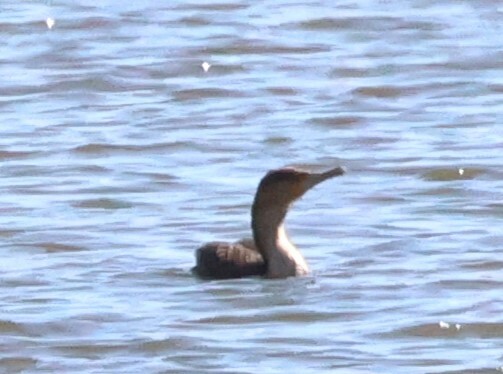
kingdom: Animalia
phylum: Chordata
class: Aves
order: Suliformes
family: Phalacrocoracidae
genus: Phalacrocorax
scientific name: Phalacrocorax carbo
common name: Great cormorant
